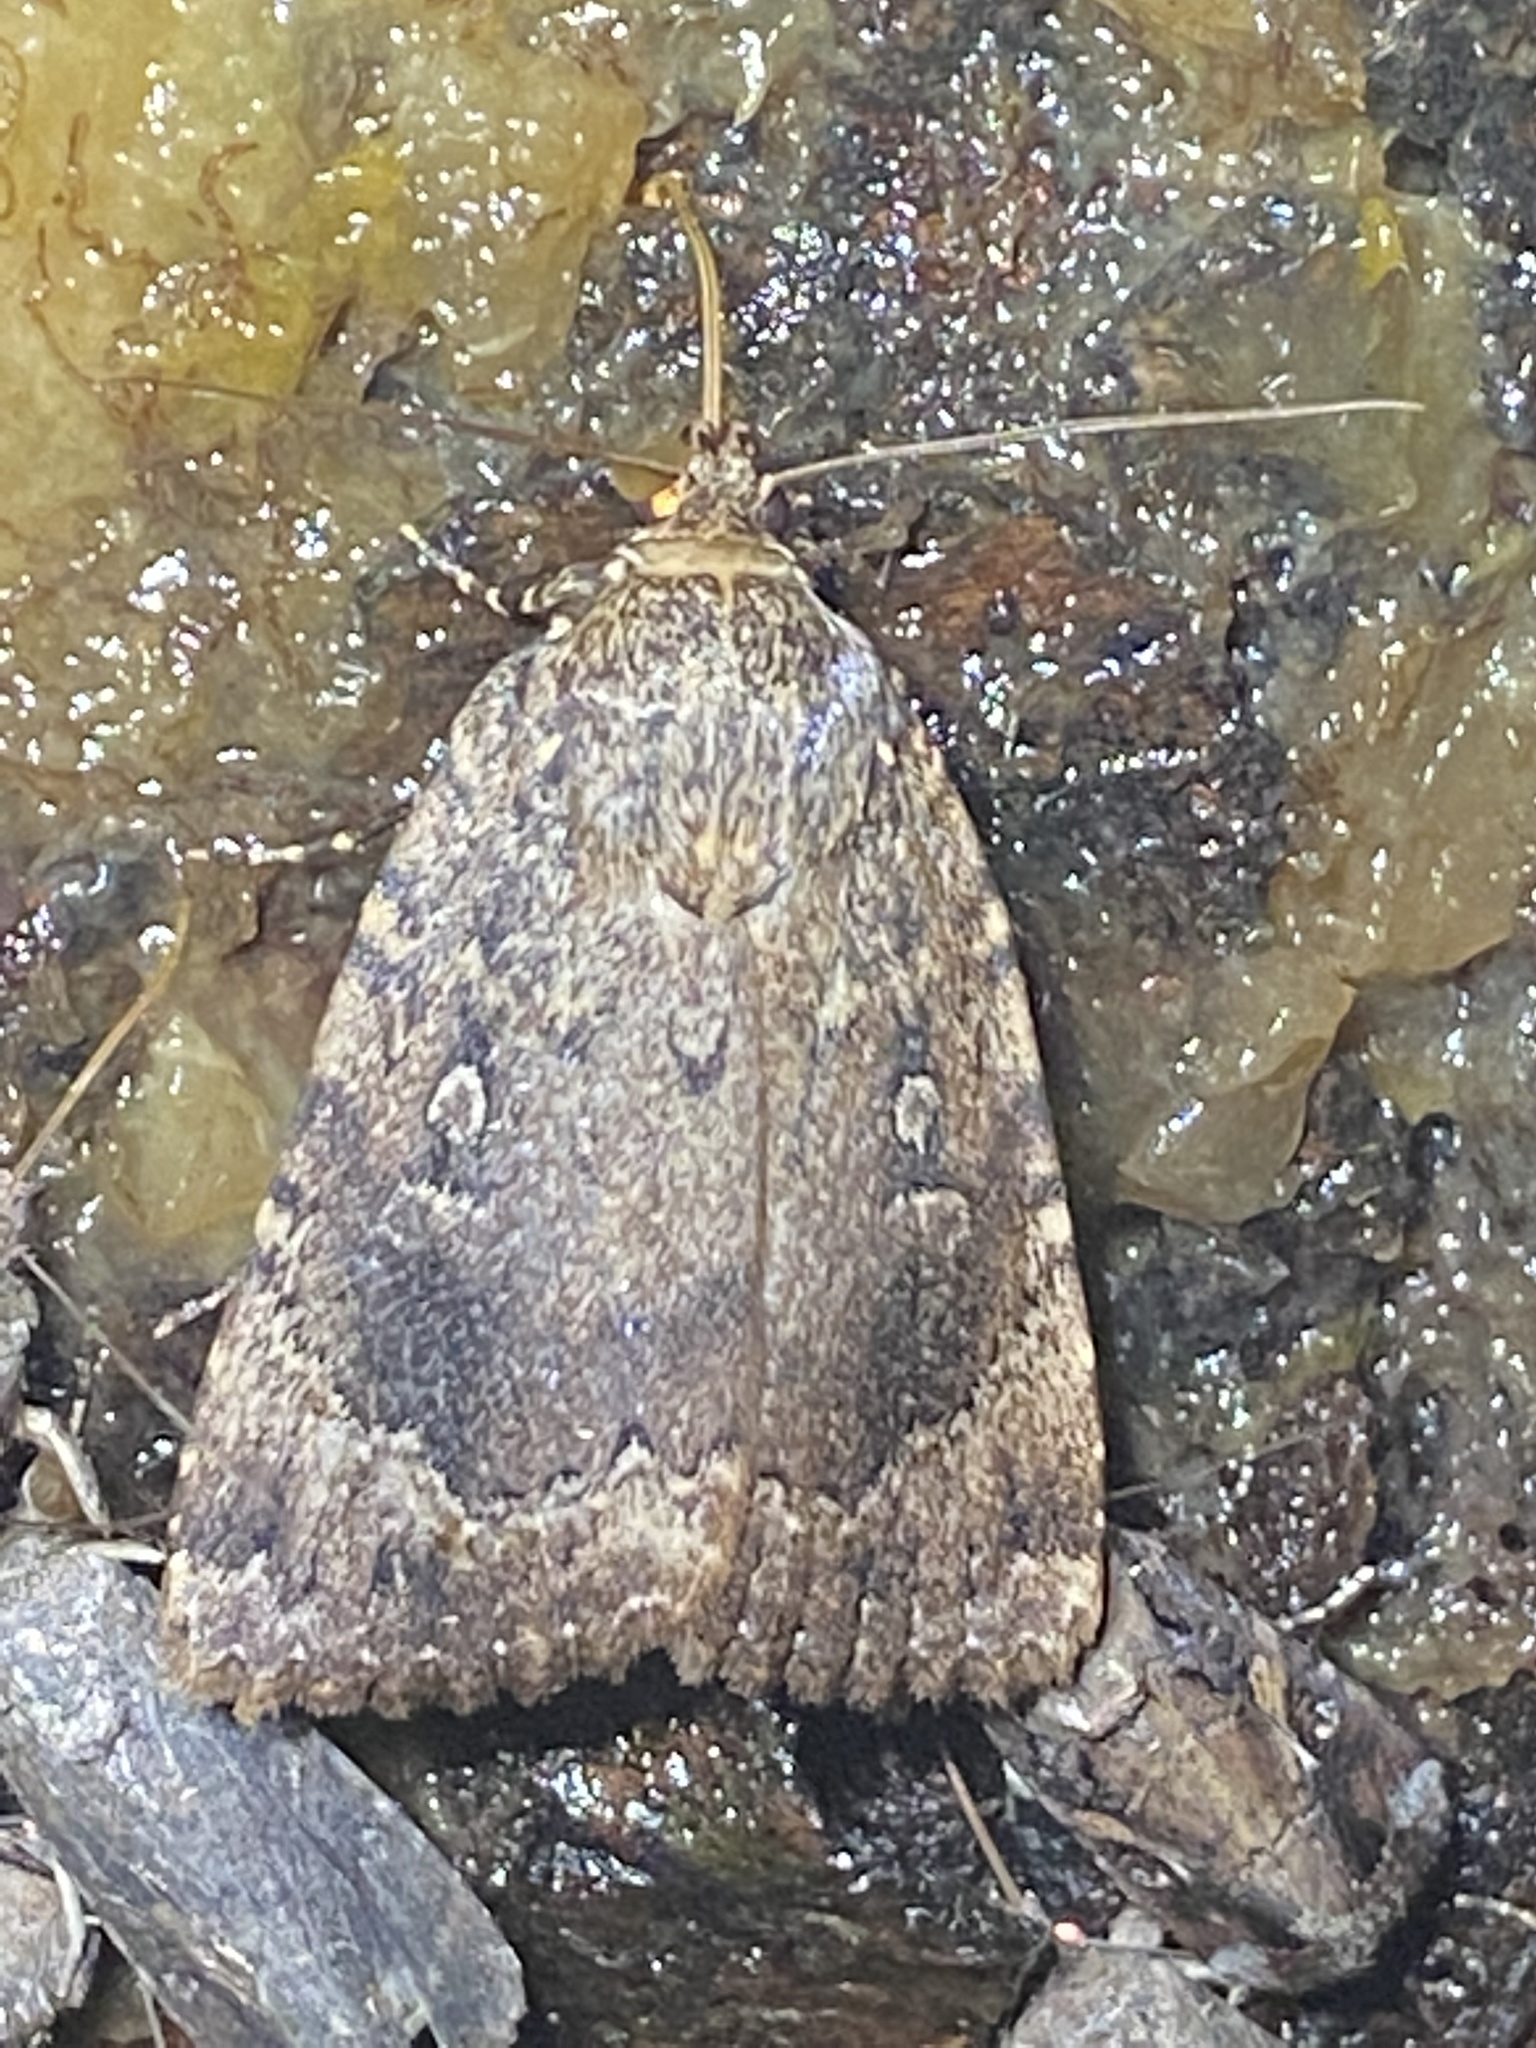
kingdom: Animalia
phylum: Arthropoda
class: Insecta
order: Lepidoptera
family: Noctuidae
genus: Amphipyra
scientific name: Amphipyra pyramidoides
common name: American copper underwing
